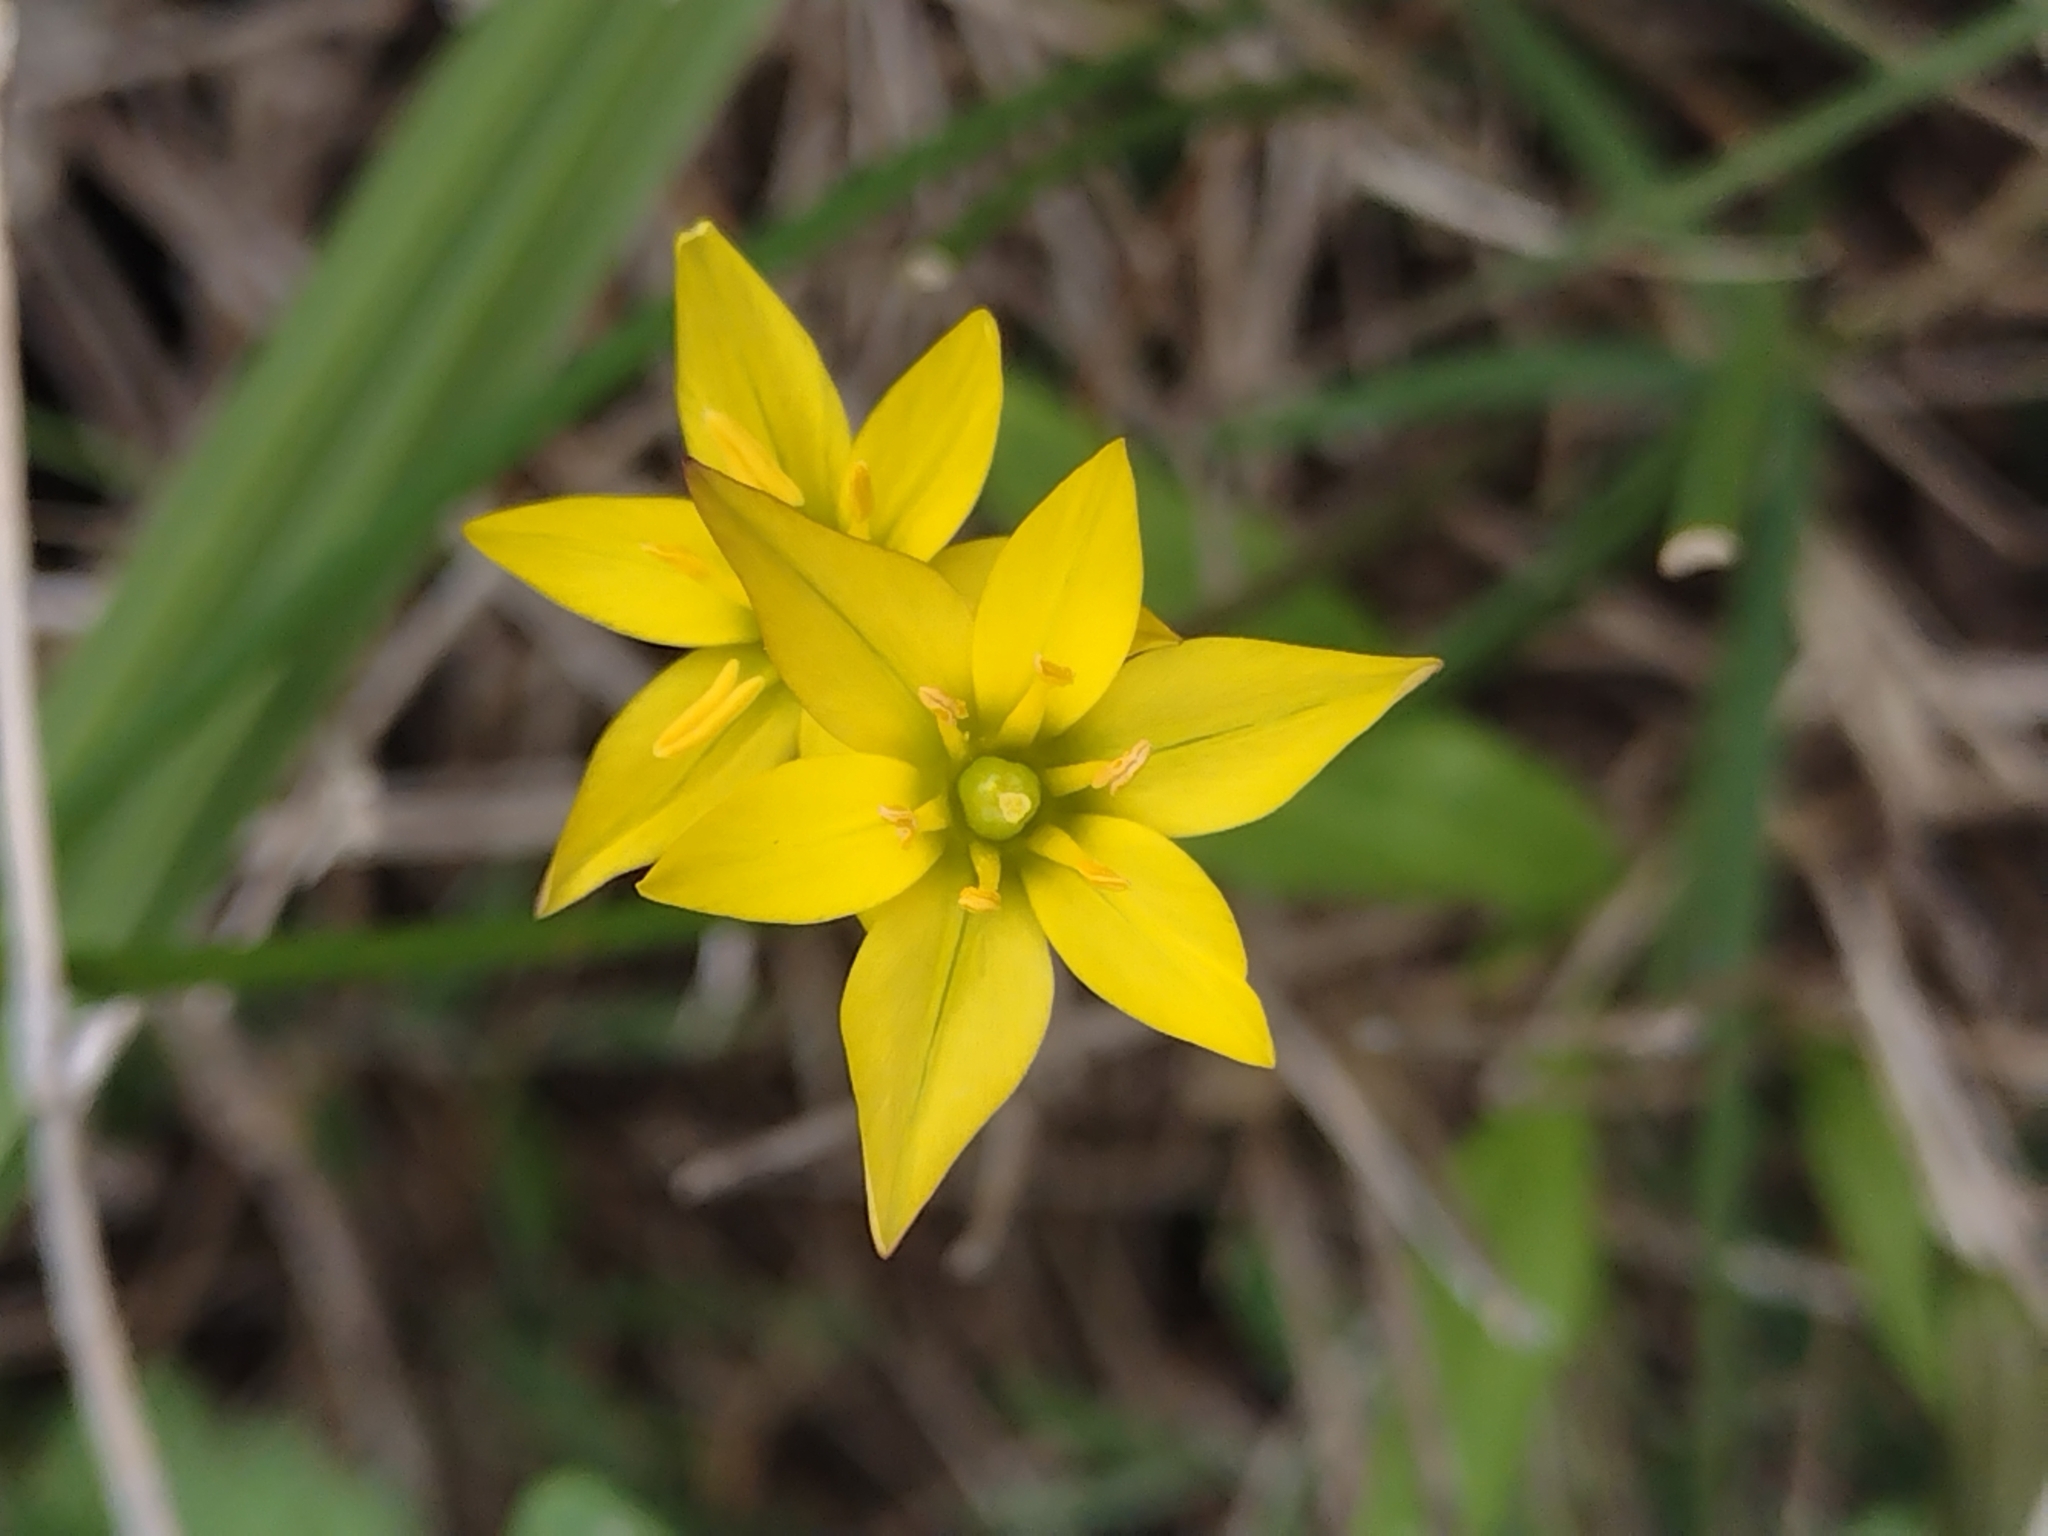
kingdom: Plantae
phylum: Tracheophyta
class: Liliopsida
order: Asparagales
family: Amaryllidaceae
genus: Nothoscordum
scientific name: Nothoscordum montevidense
